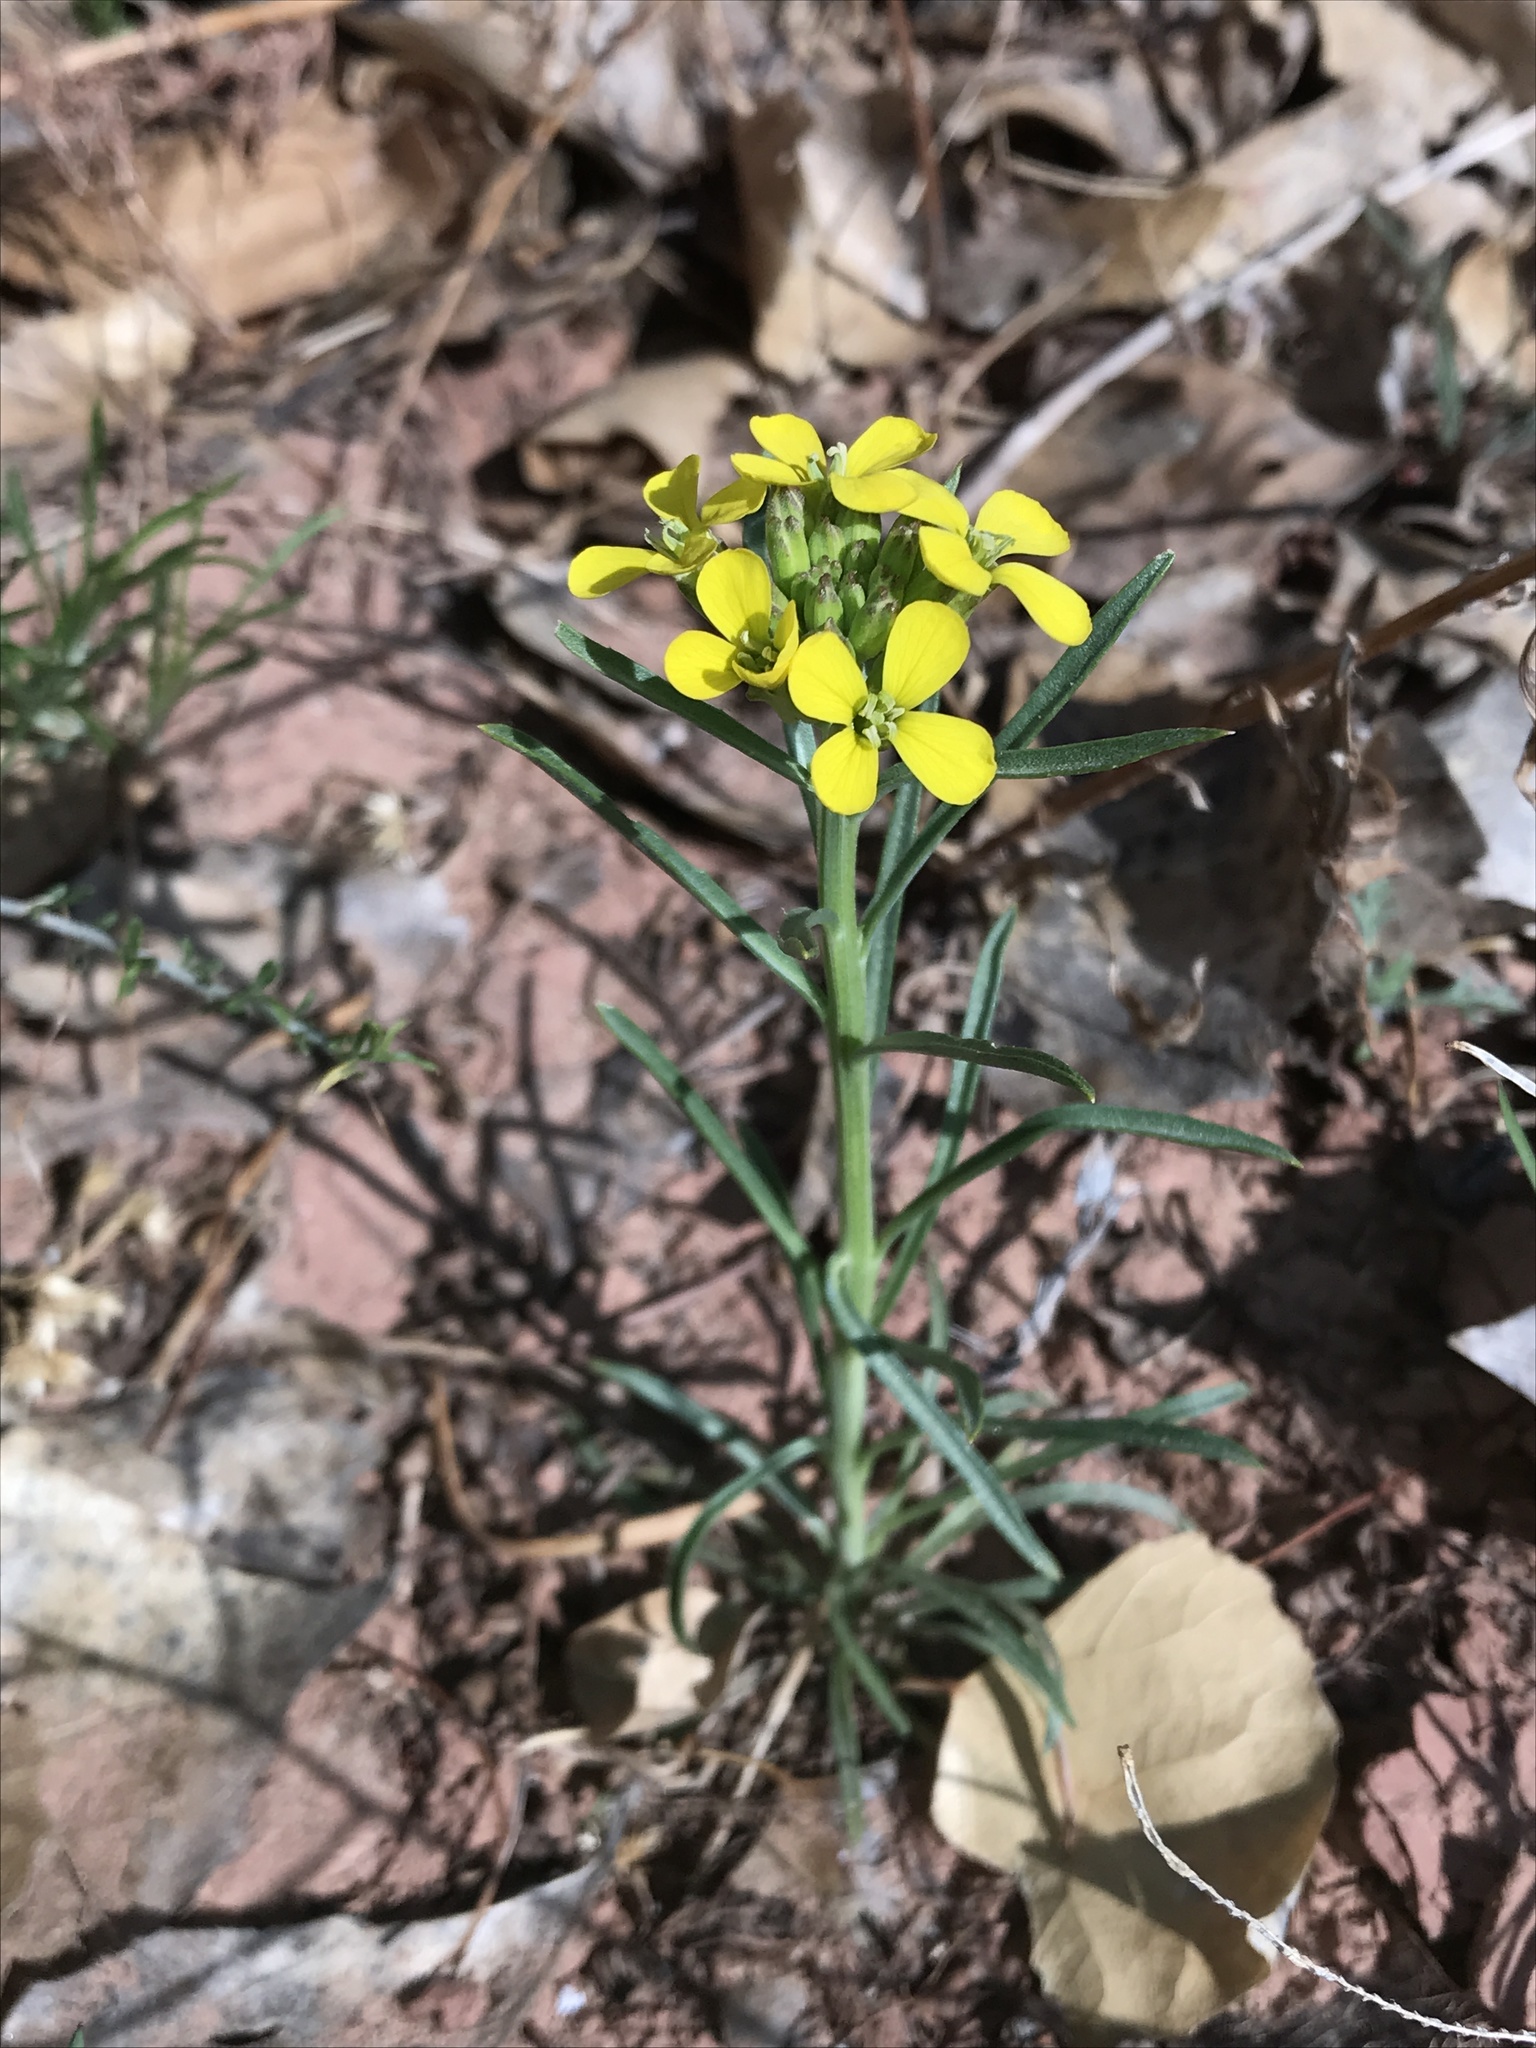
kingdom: Plantae
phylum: Tracheophyta
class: Magnoliopsida
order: Brassicales
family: Brassicaceae
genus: Erysimum
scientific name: Erysimum capitatum
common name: Western wallflower
